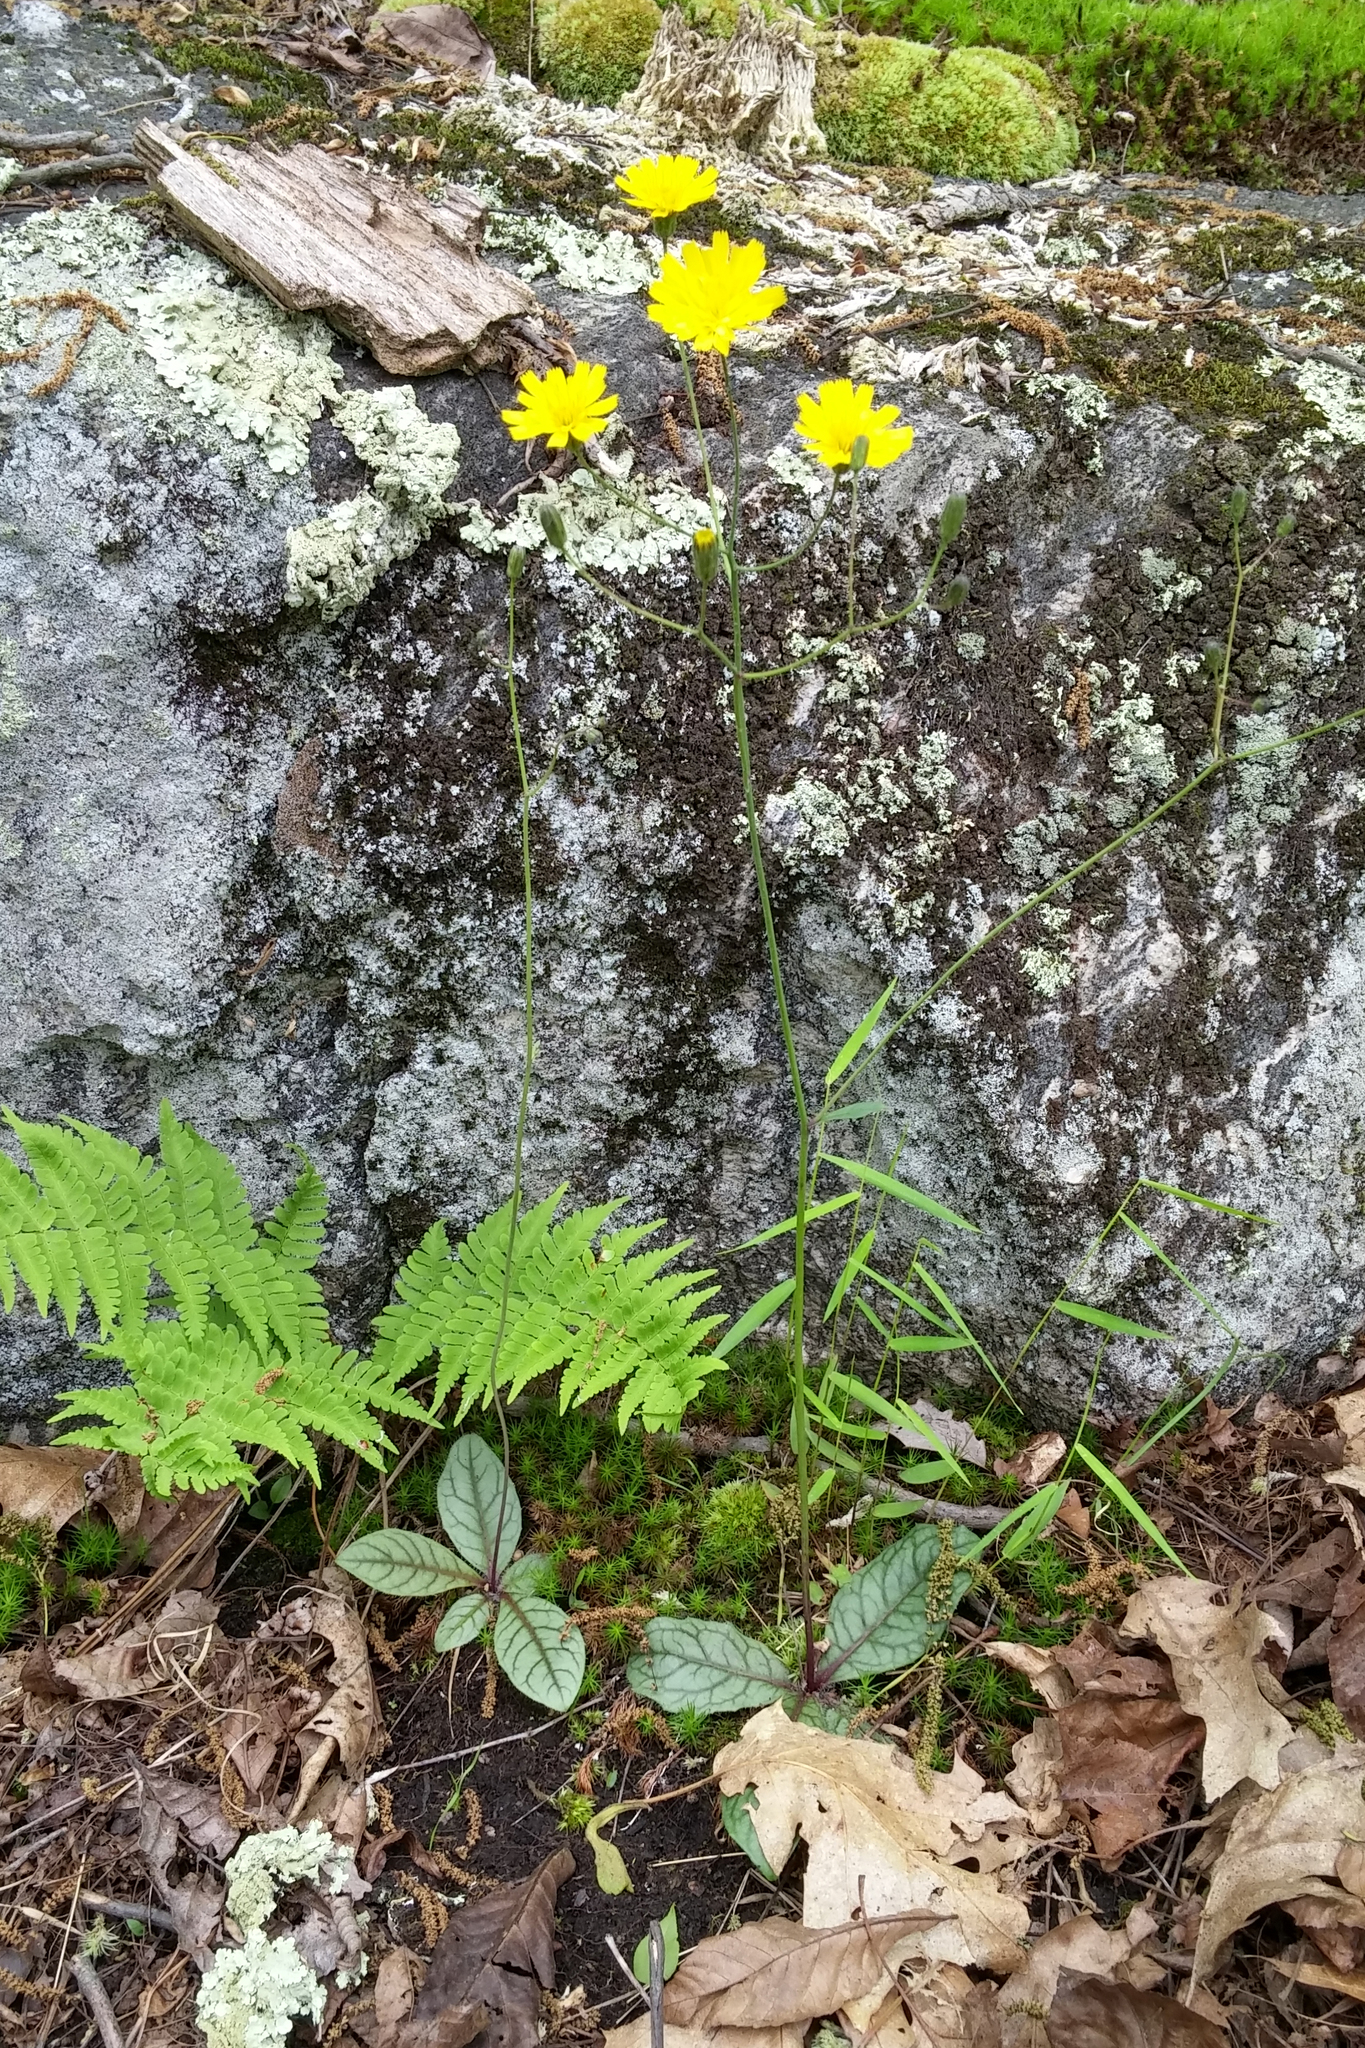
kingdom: Plantae
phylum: Tracheophyta
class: Magnoliopsida
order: Asterales
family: Asteraceae
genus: Hieracium
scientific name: Hieracium venosum
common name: Rattlesnake hawkweed
